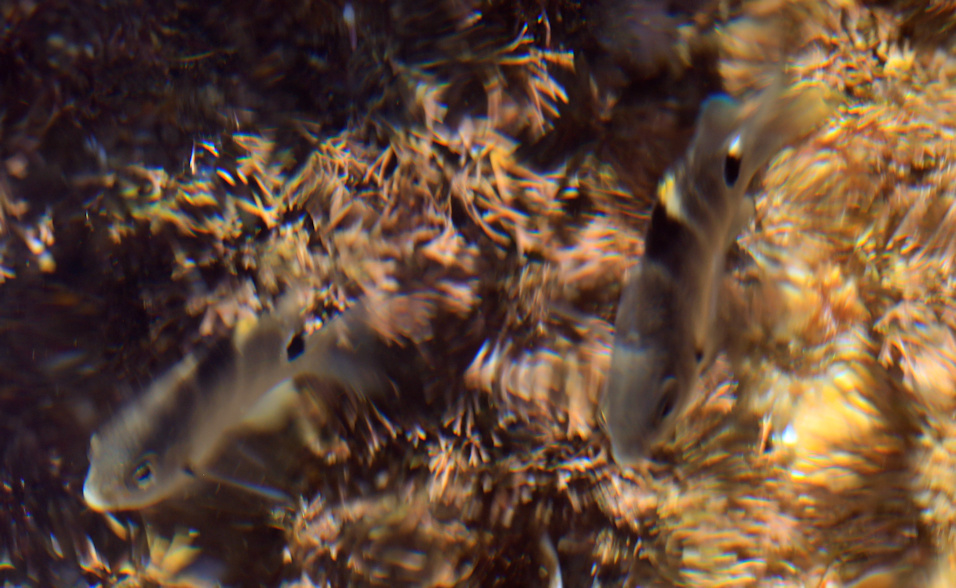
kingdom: Animalia
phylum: Chordata
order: Perciformes
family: Pomacentridae
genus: Abudefduf
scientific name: Abudefduf sordidus
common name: Blackspot sergeant
